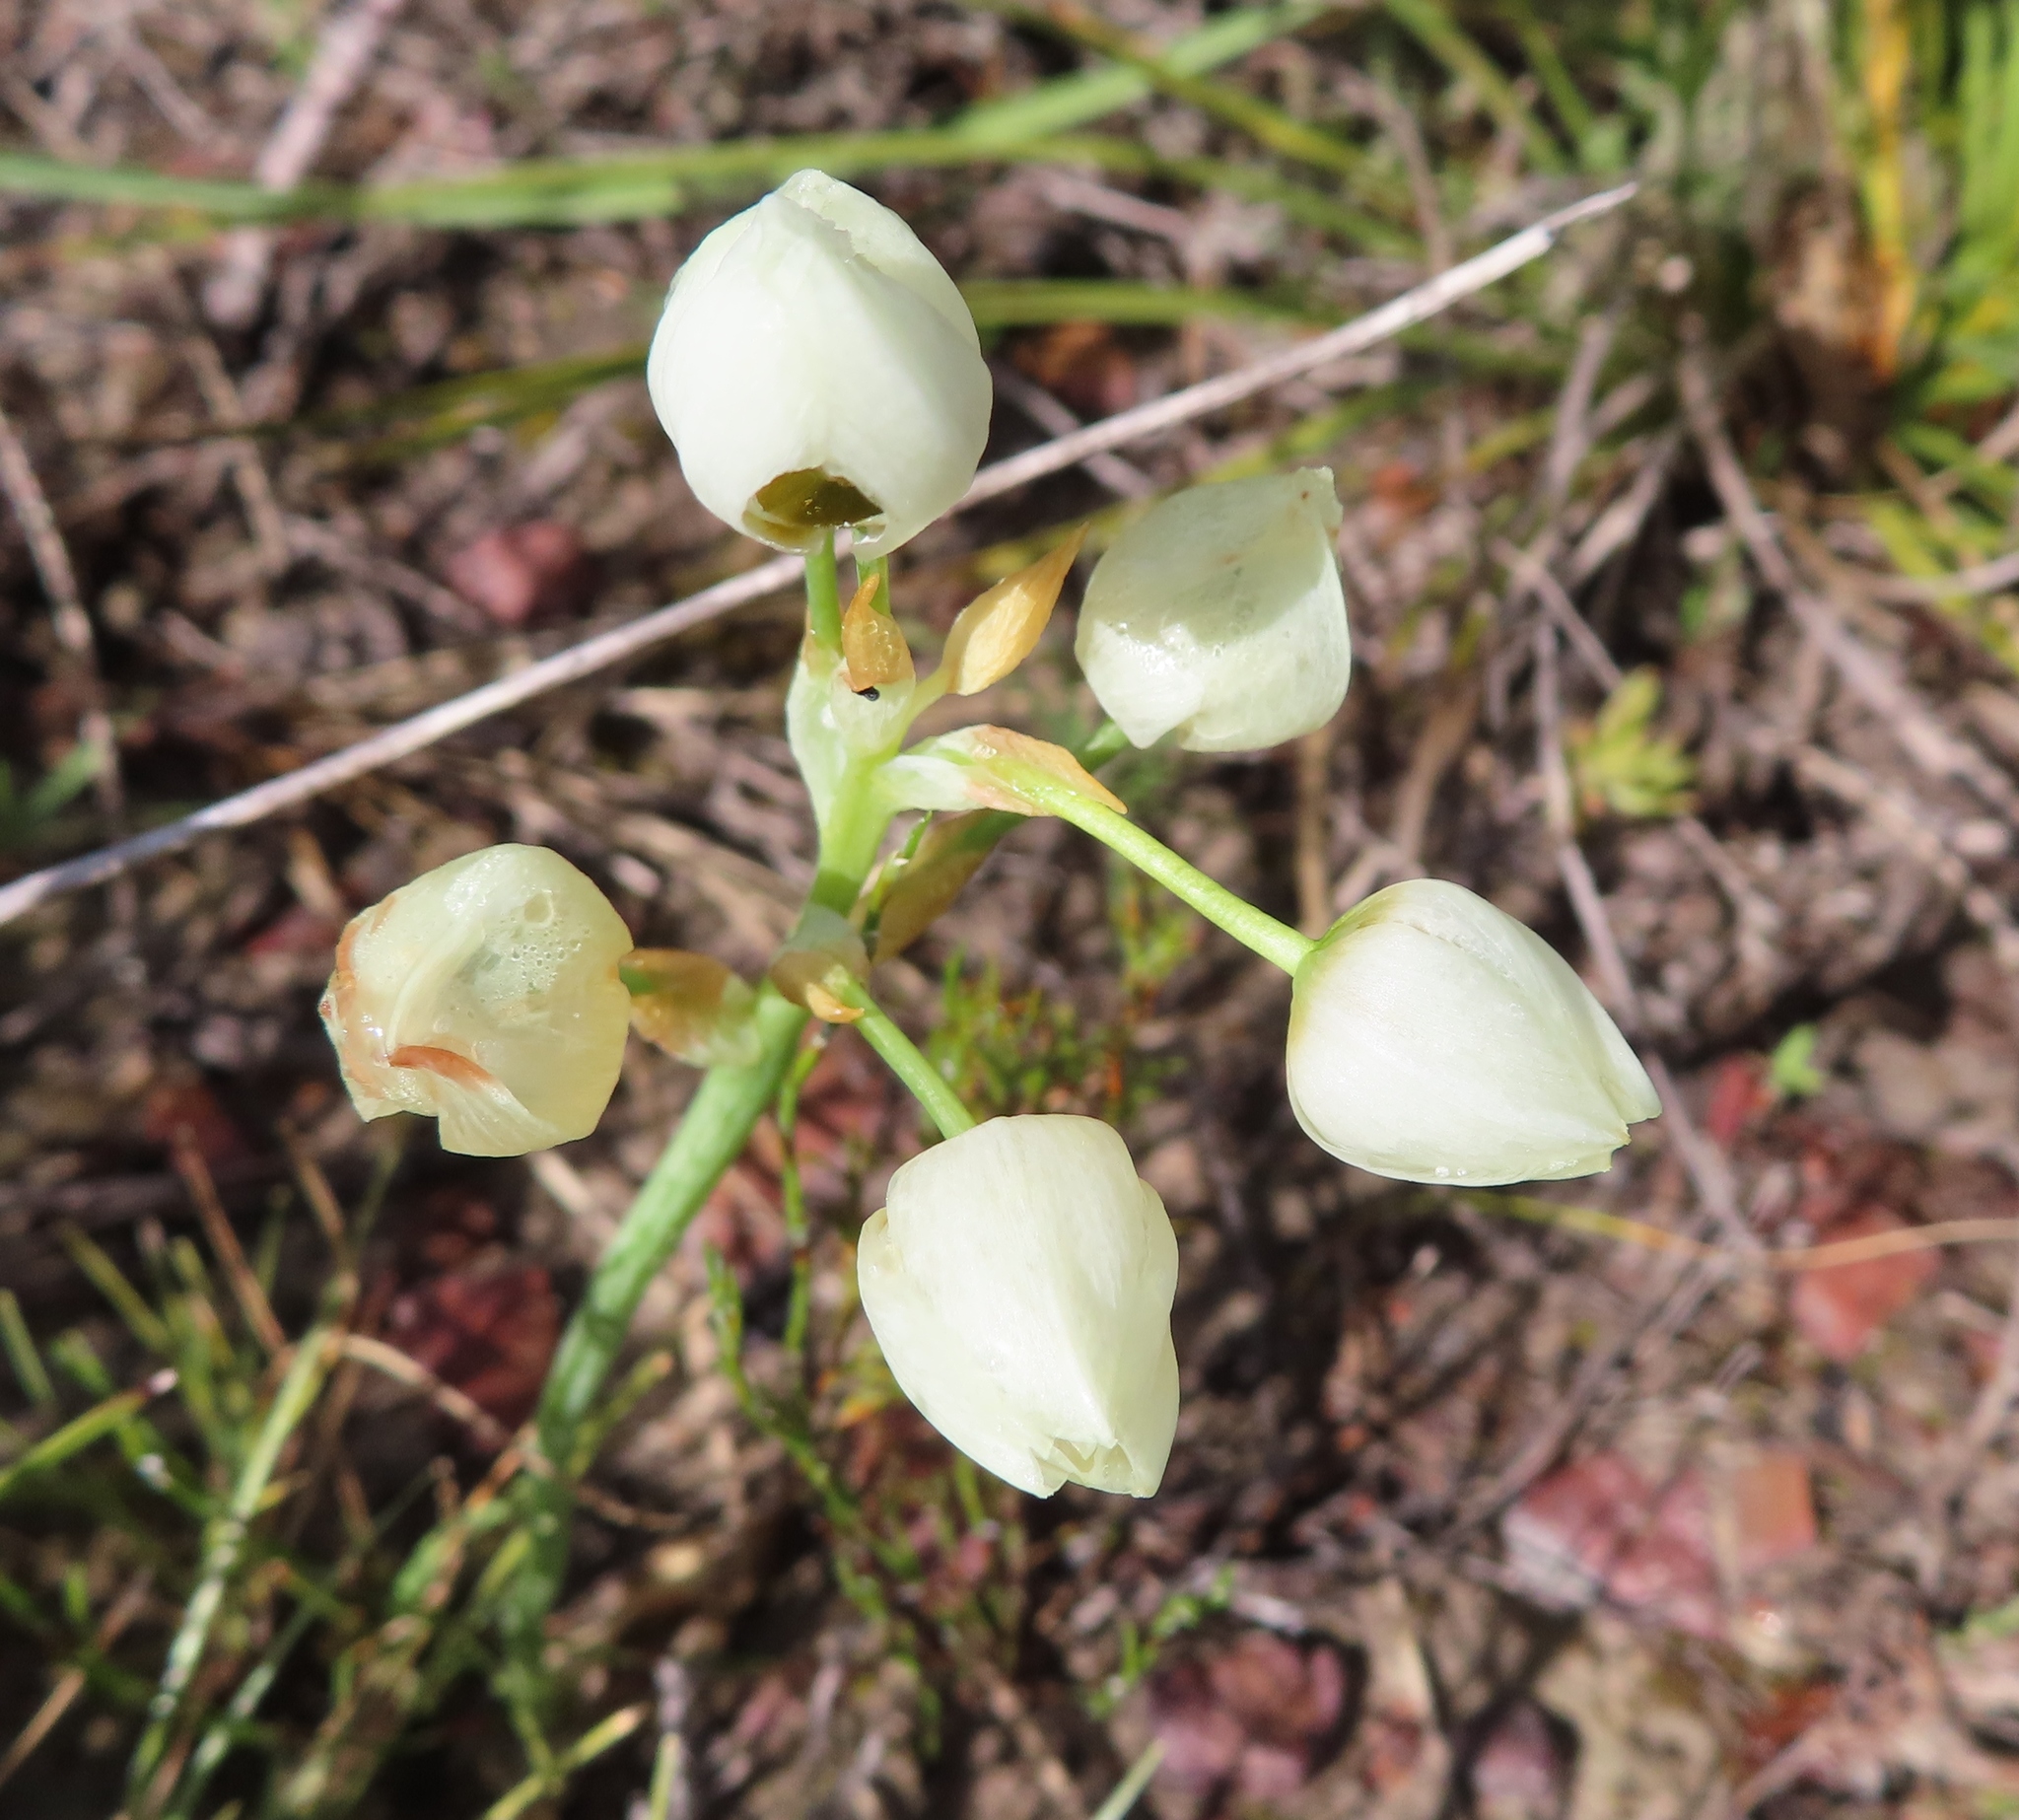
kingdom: Plantae
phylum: Tracheophyta
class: Liliopsida
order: Asparagales
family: Asparagaceae
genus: Ornithogalum
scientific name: Ornithogalum thyrsoides
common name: Chincherinchee
